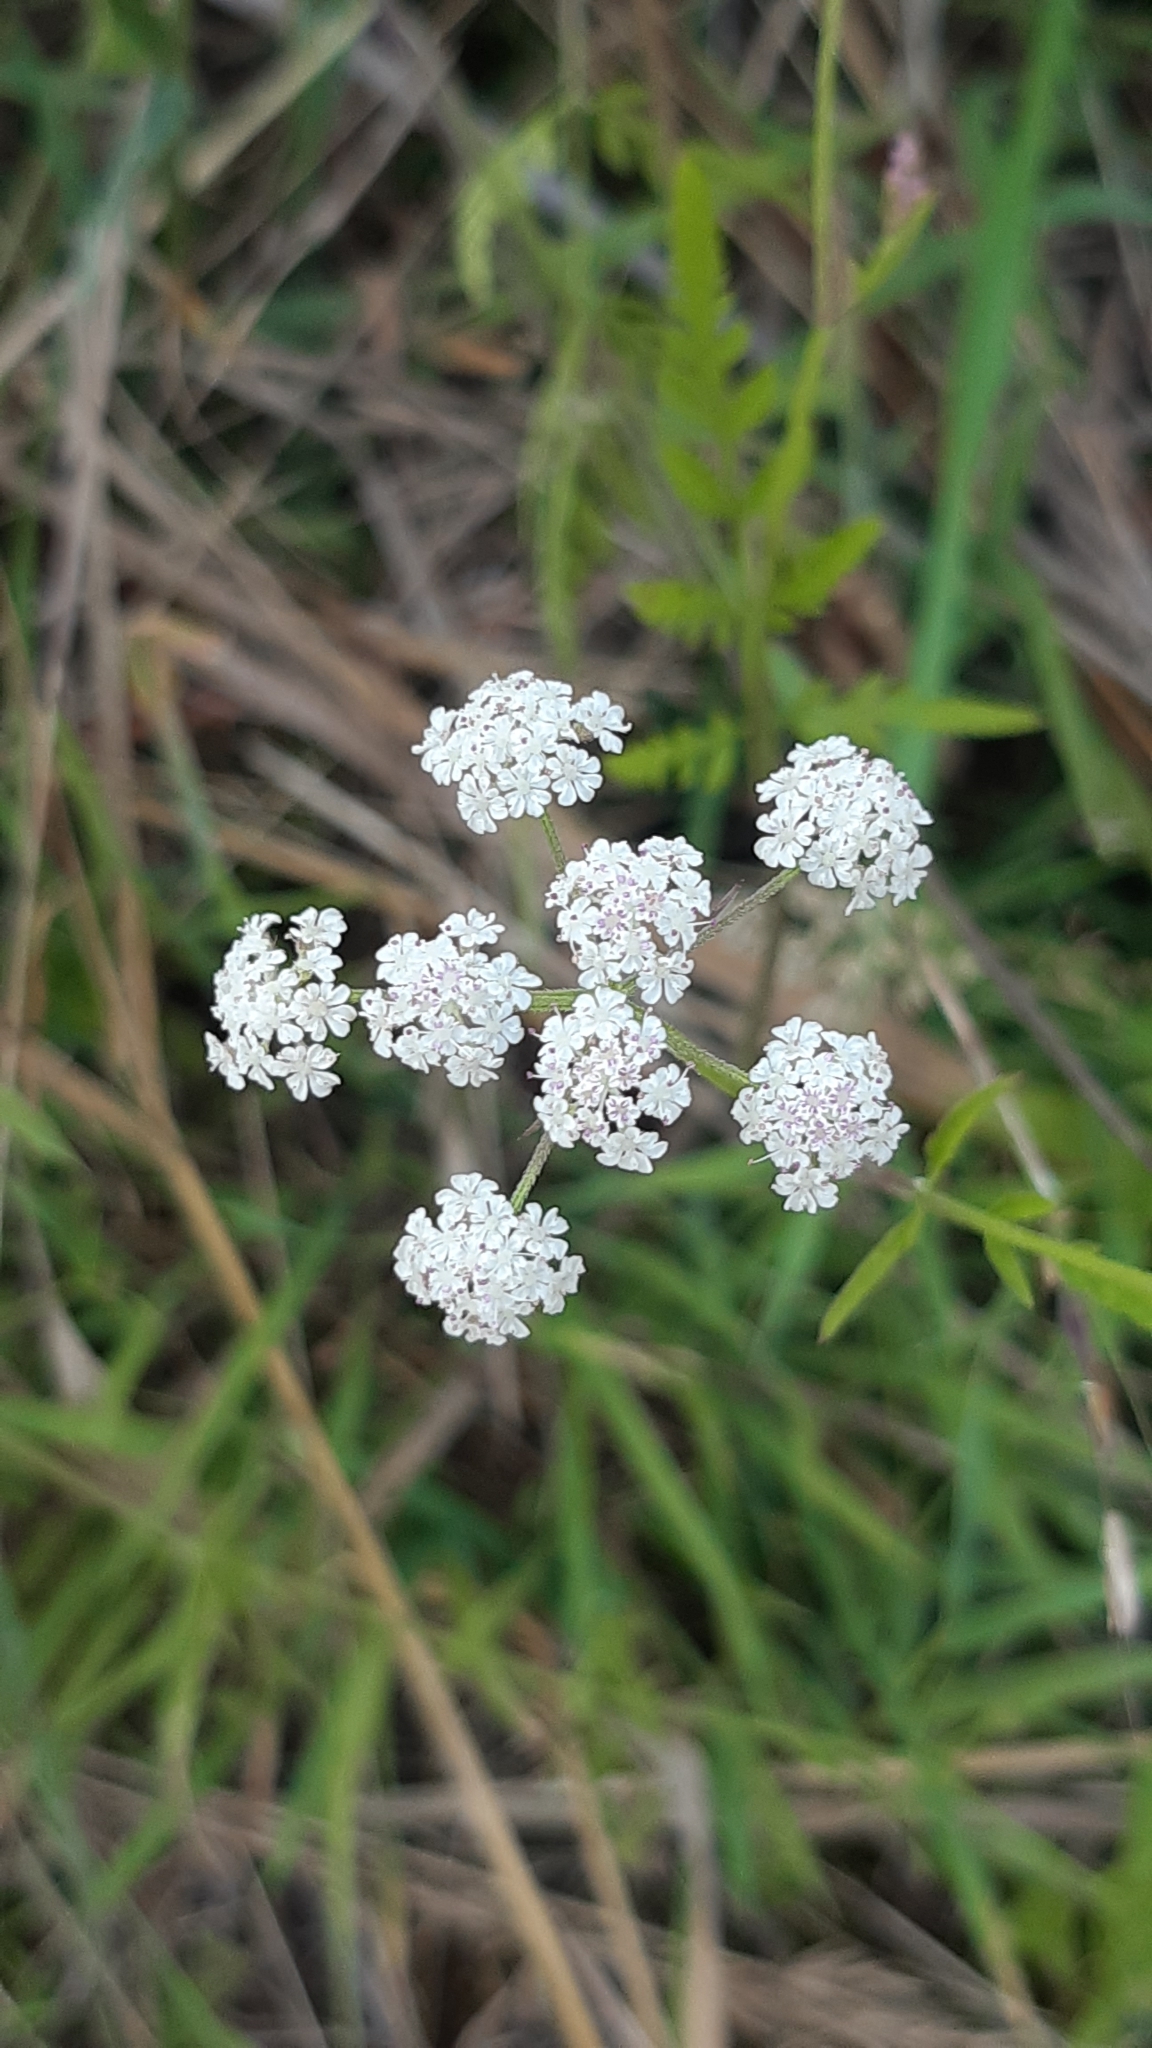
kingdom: Plantae
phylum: Tracheophyta
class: Magnoliopsida
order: Apiales
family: Apiaceae
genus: Torilis
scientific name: Torilis japonica
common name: Upright hedge-parsley
